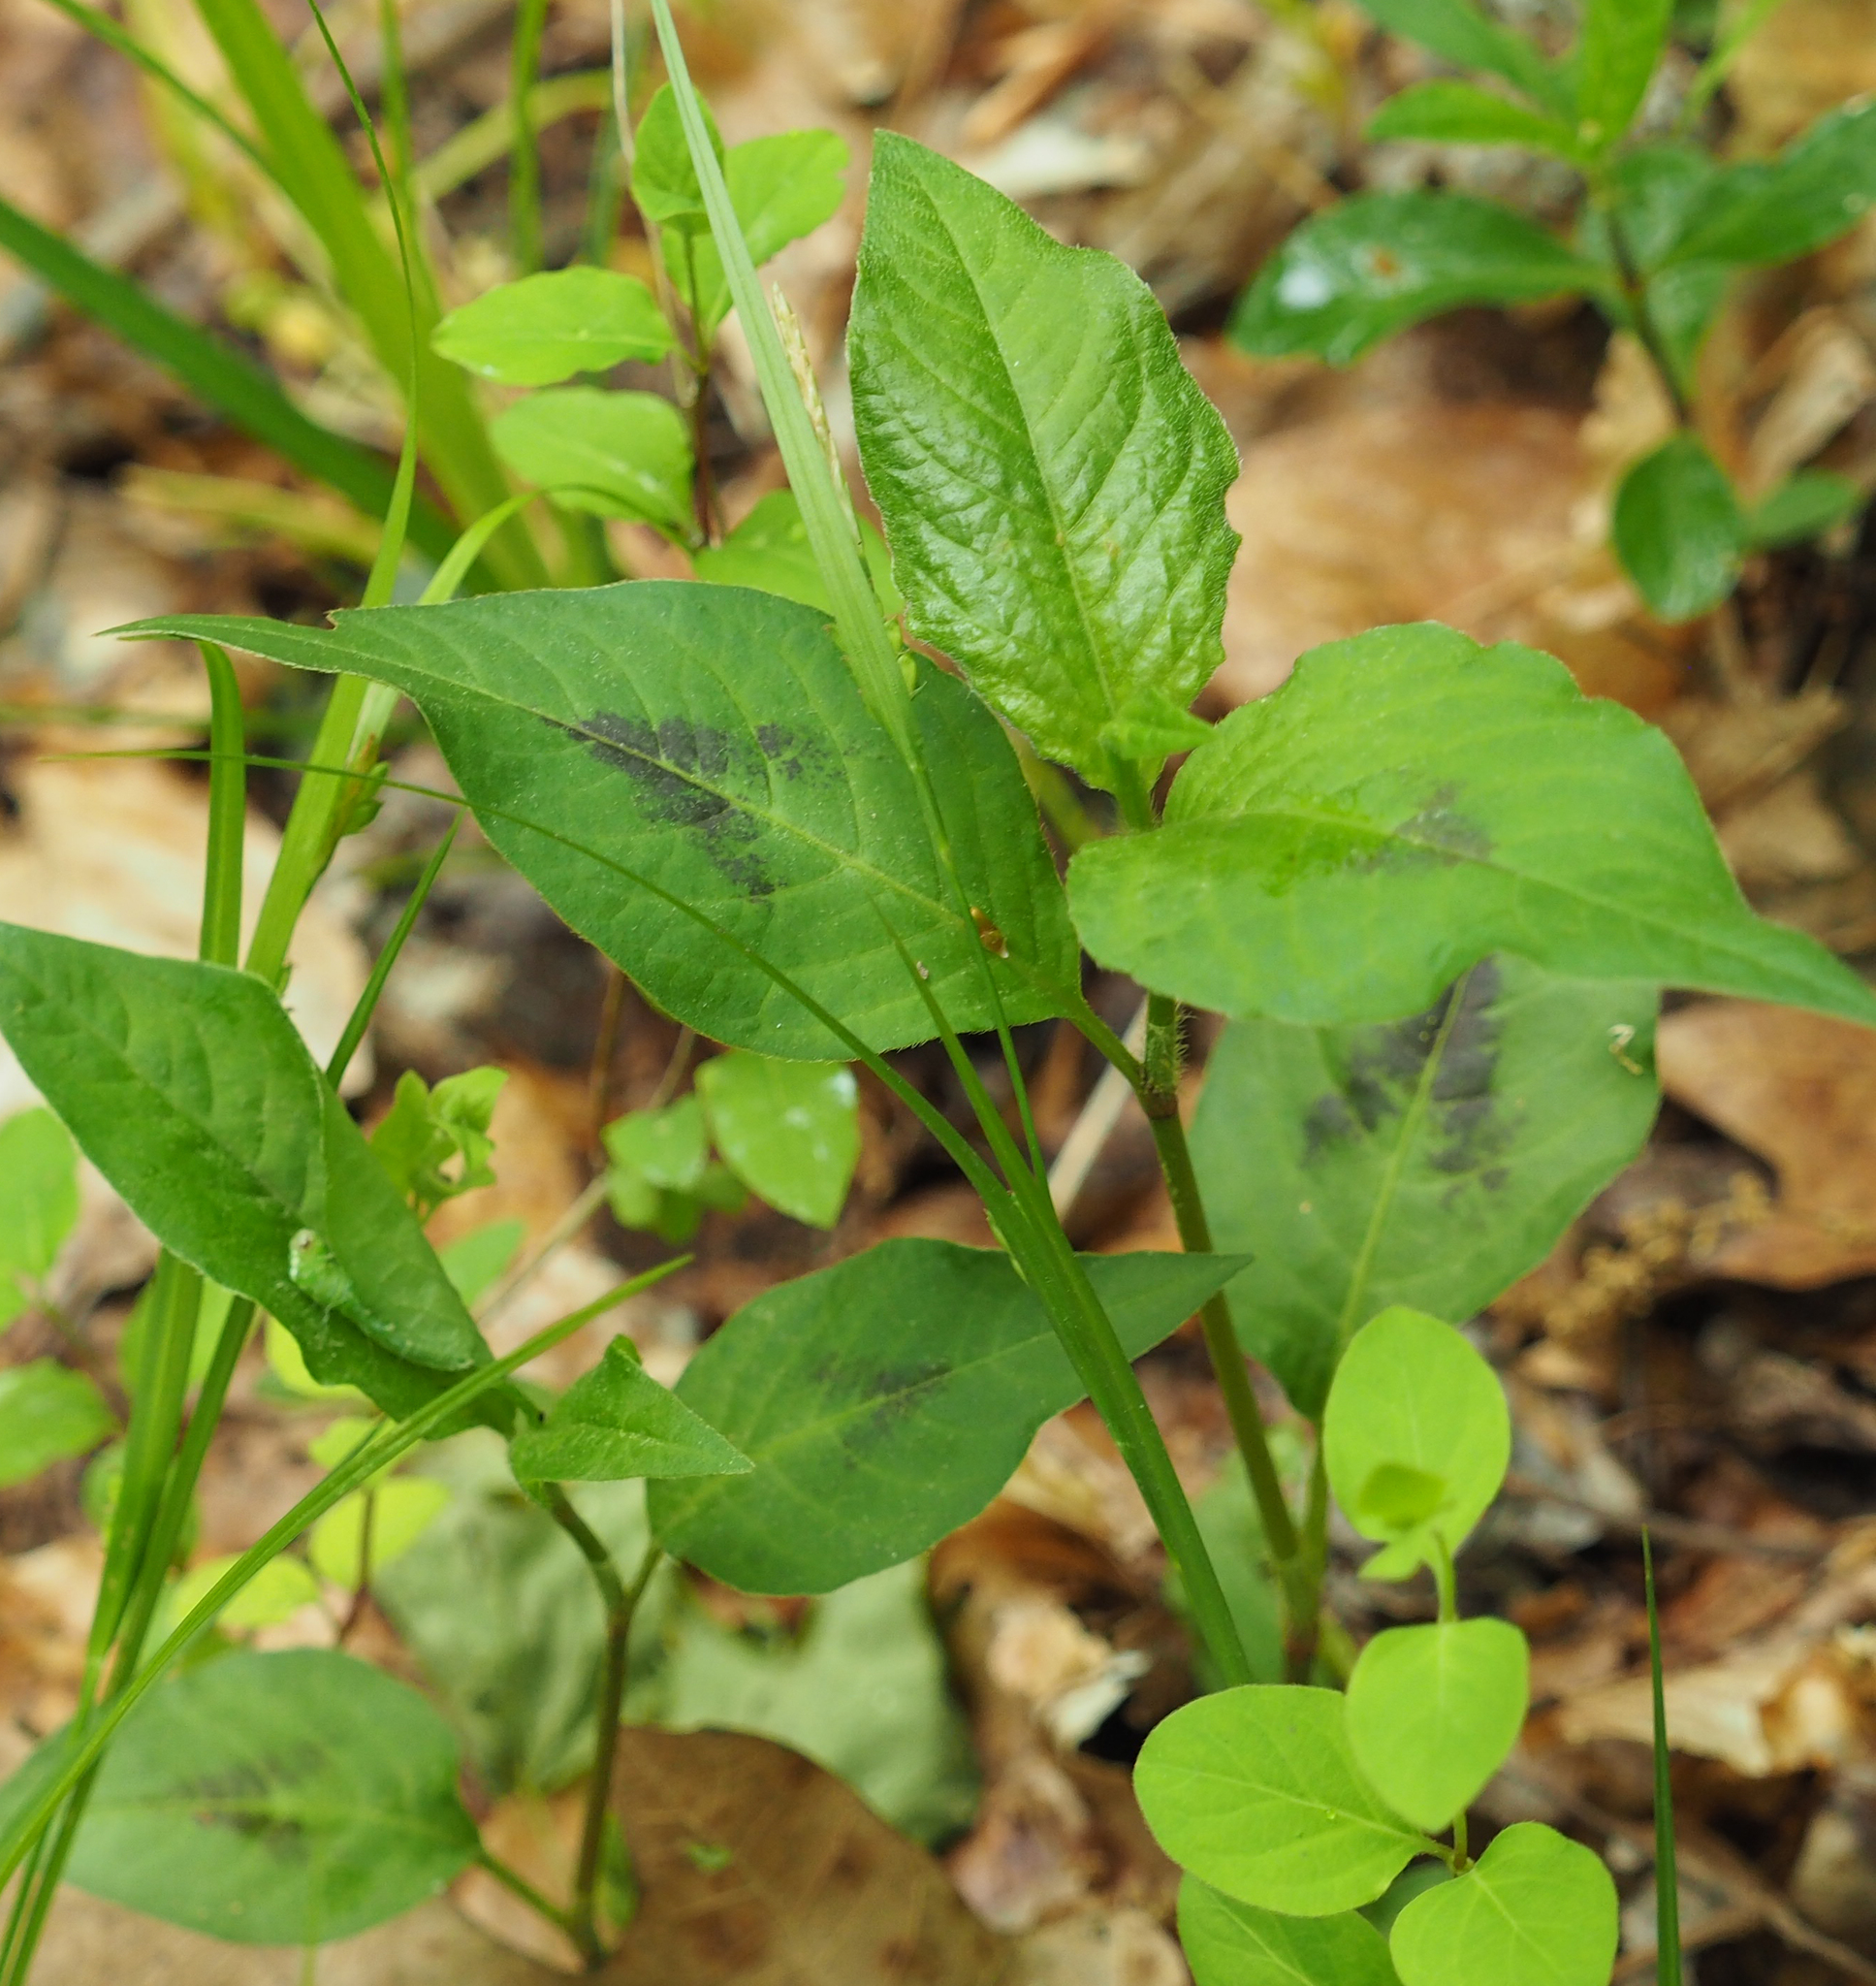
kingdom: Plantae
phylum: Tracheophyta
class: Magnoliopsida
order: Caryophyllales
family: Polygonaceae
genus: Persicaria
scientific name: Persicaria virginiana
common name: Jumpseed
